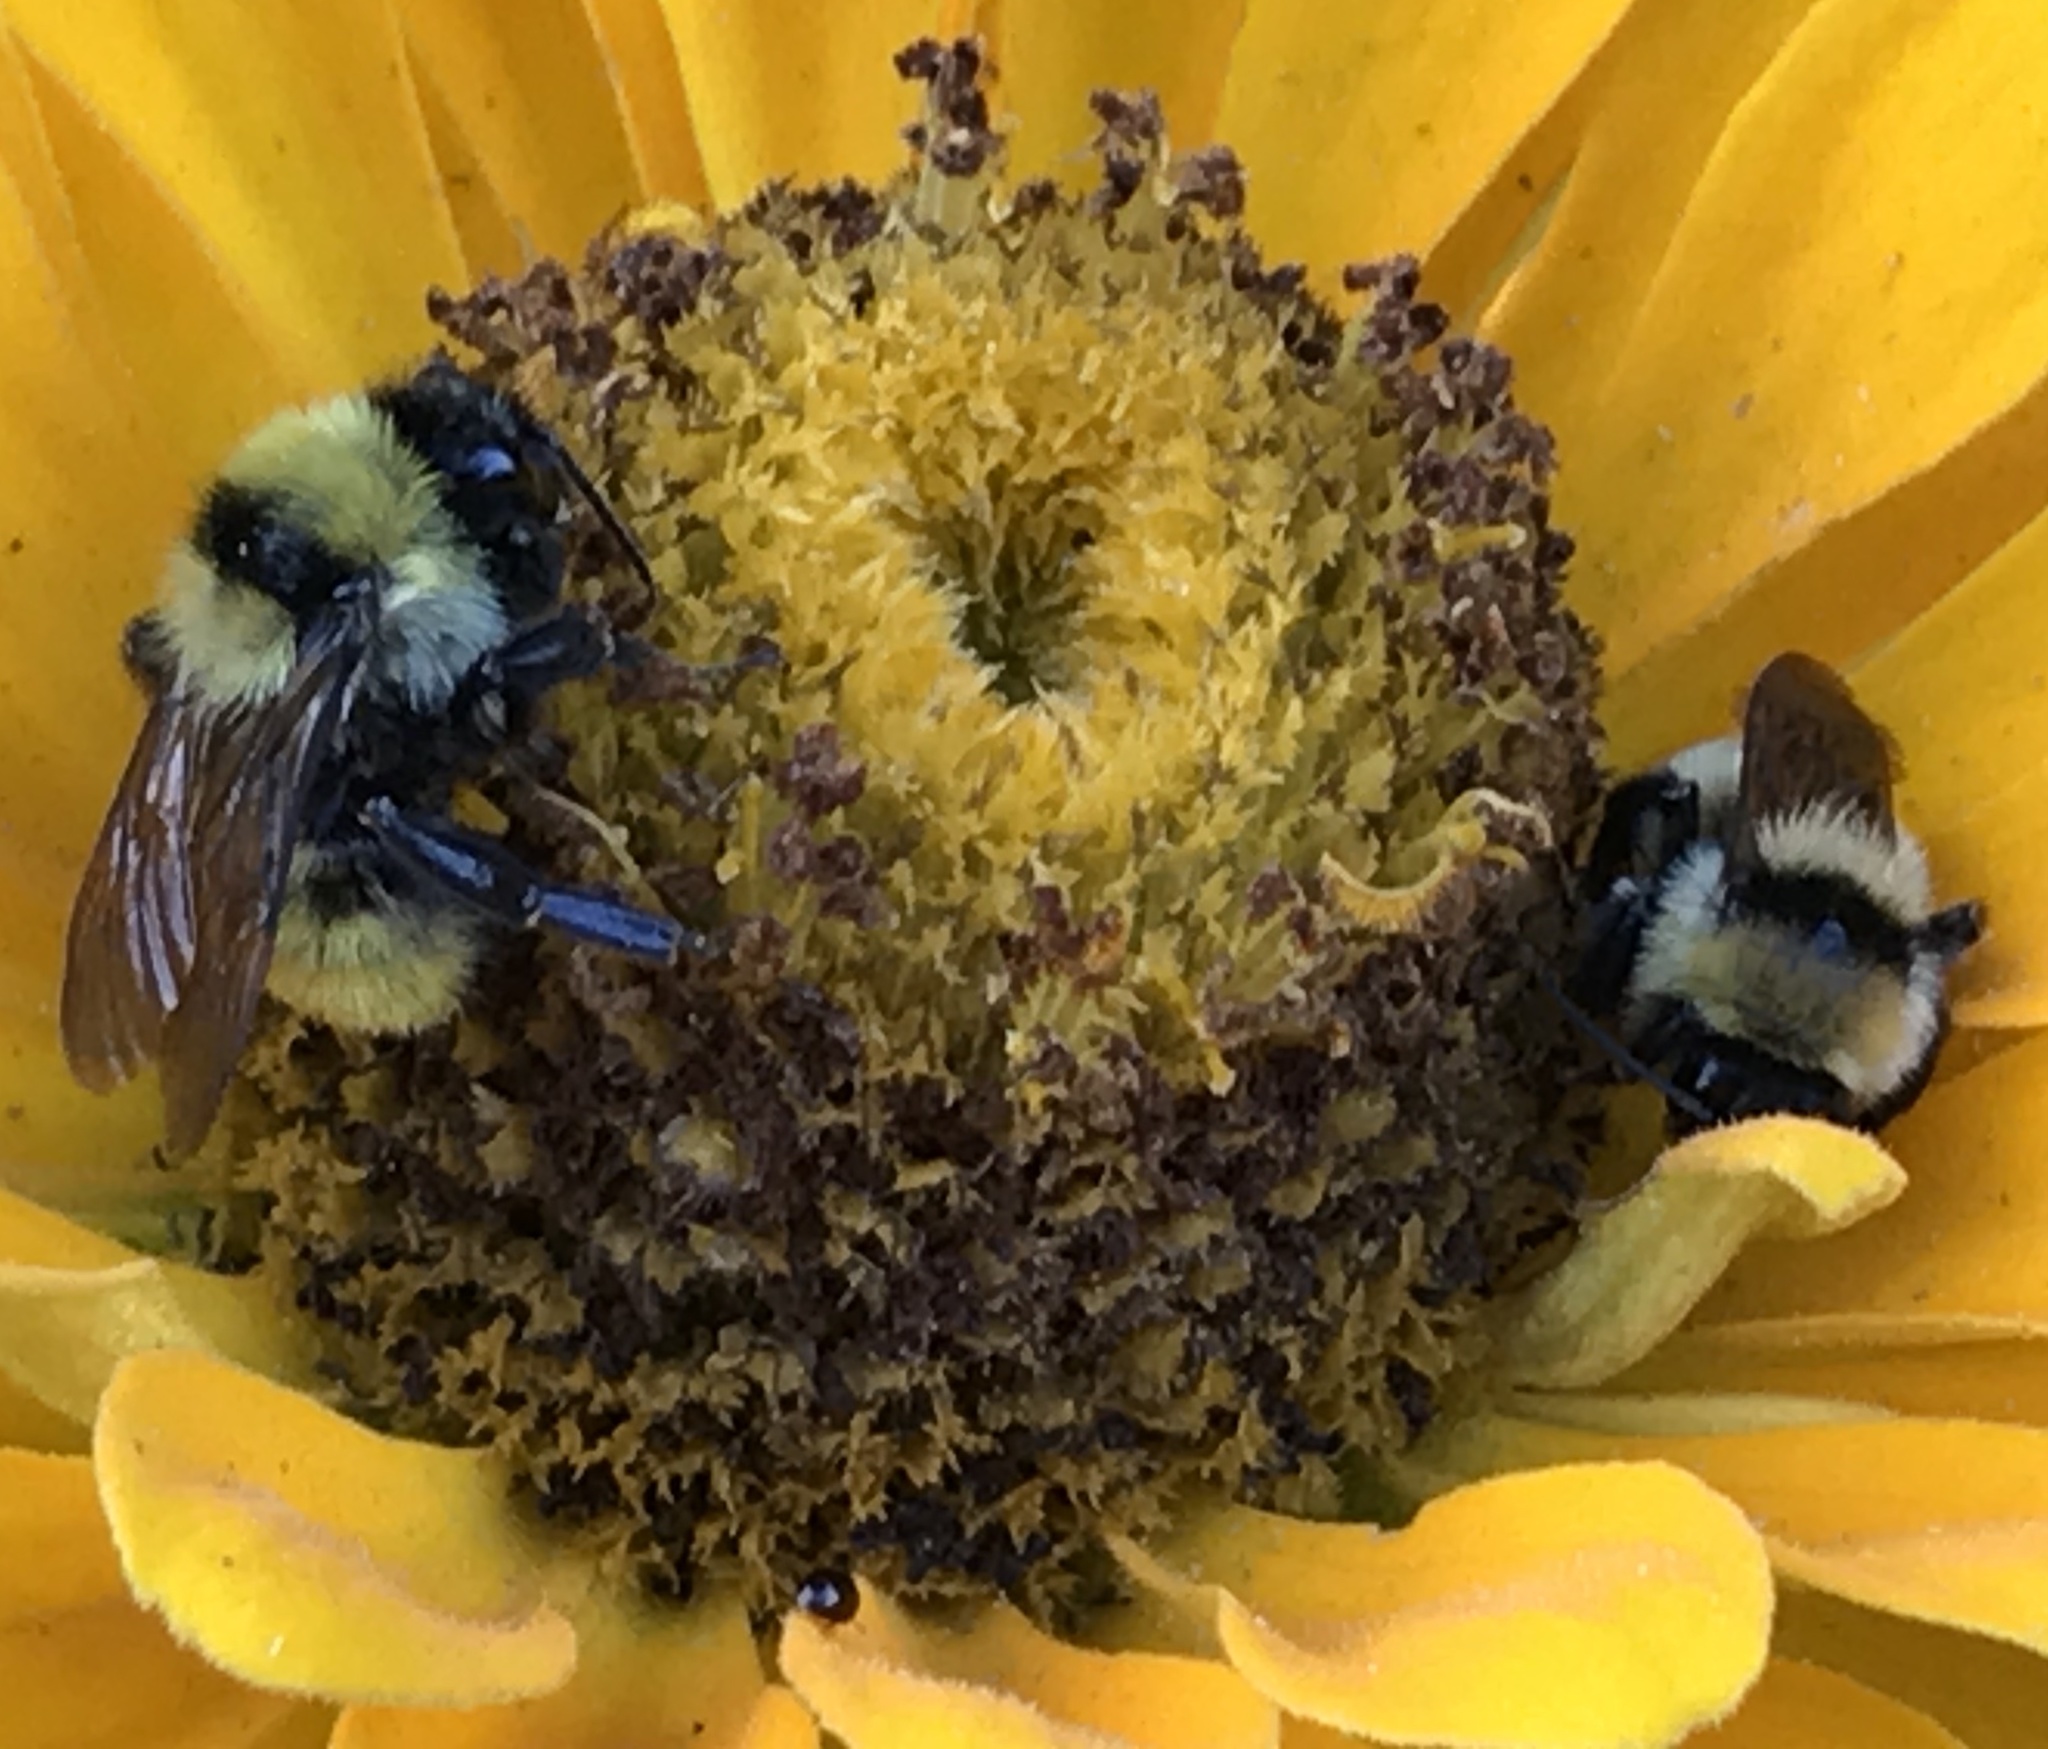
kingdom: Animalia
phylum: Arthropoda
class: Insecta
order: Hymenoptera
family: Apidae
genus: Bombus
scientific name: Bombus fervidus
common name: Yellow bumble bee
